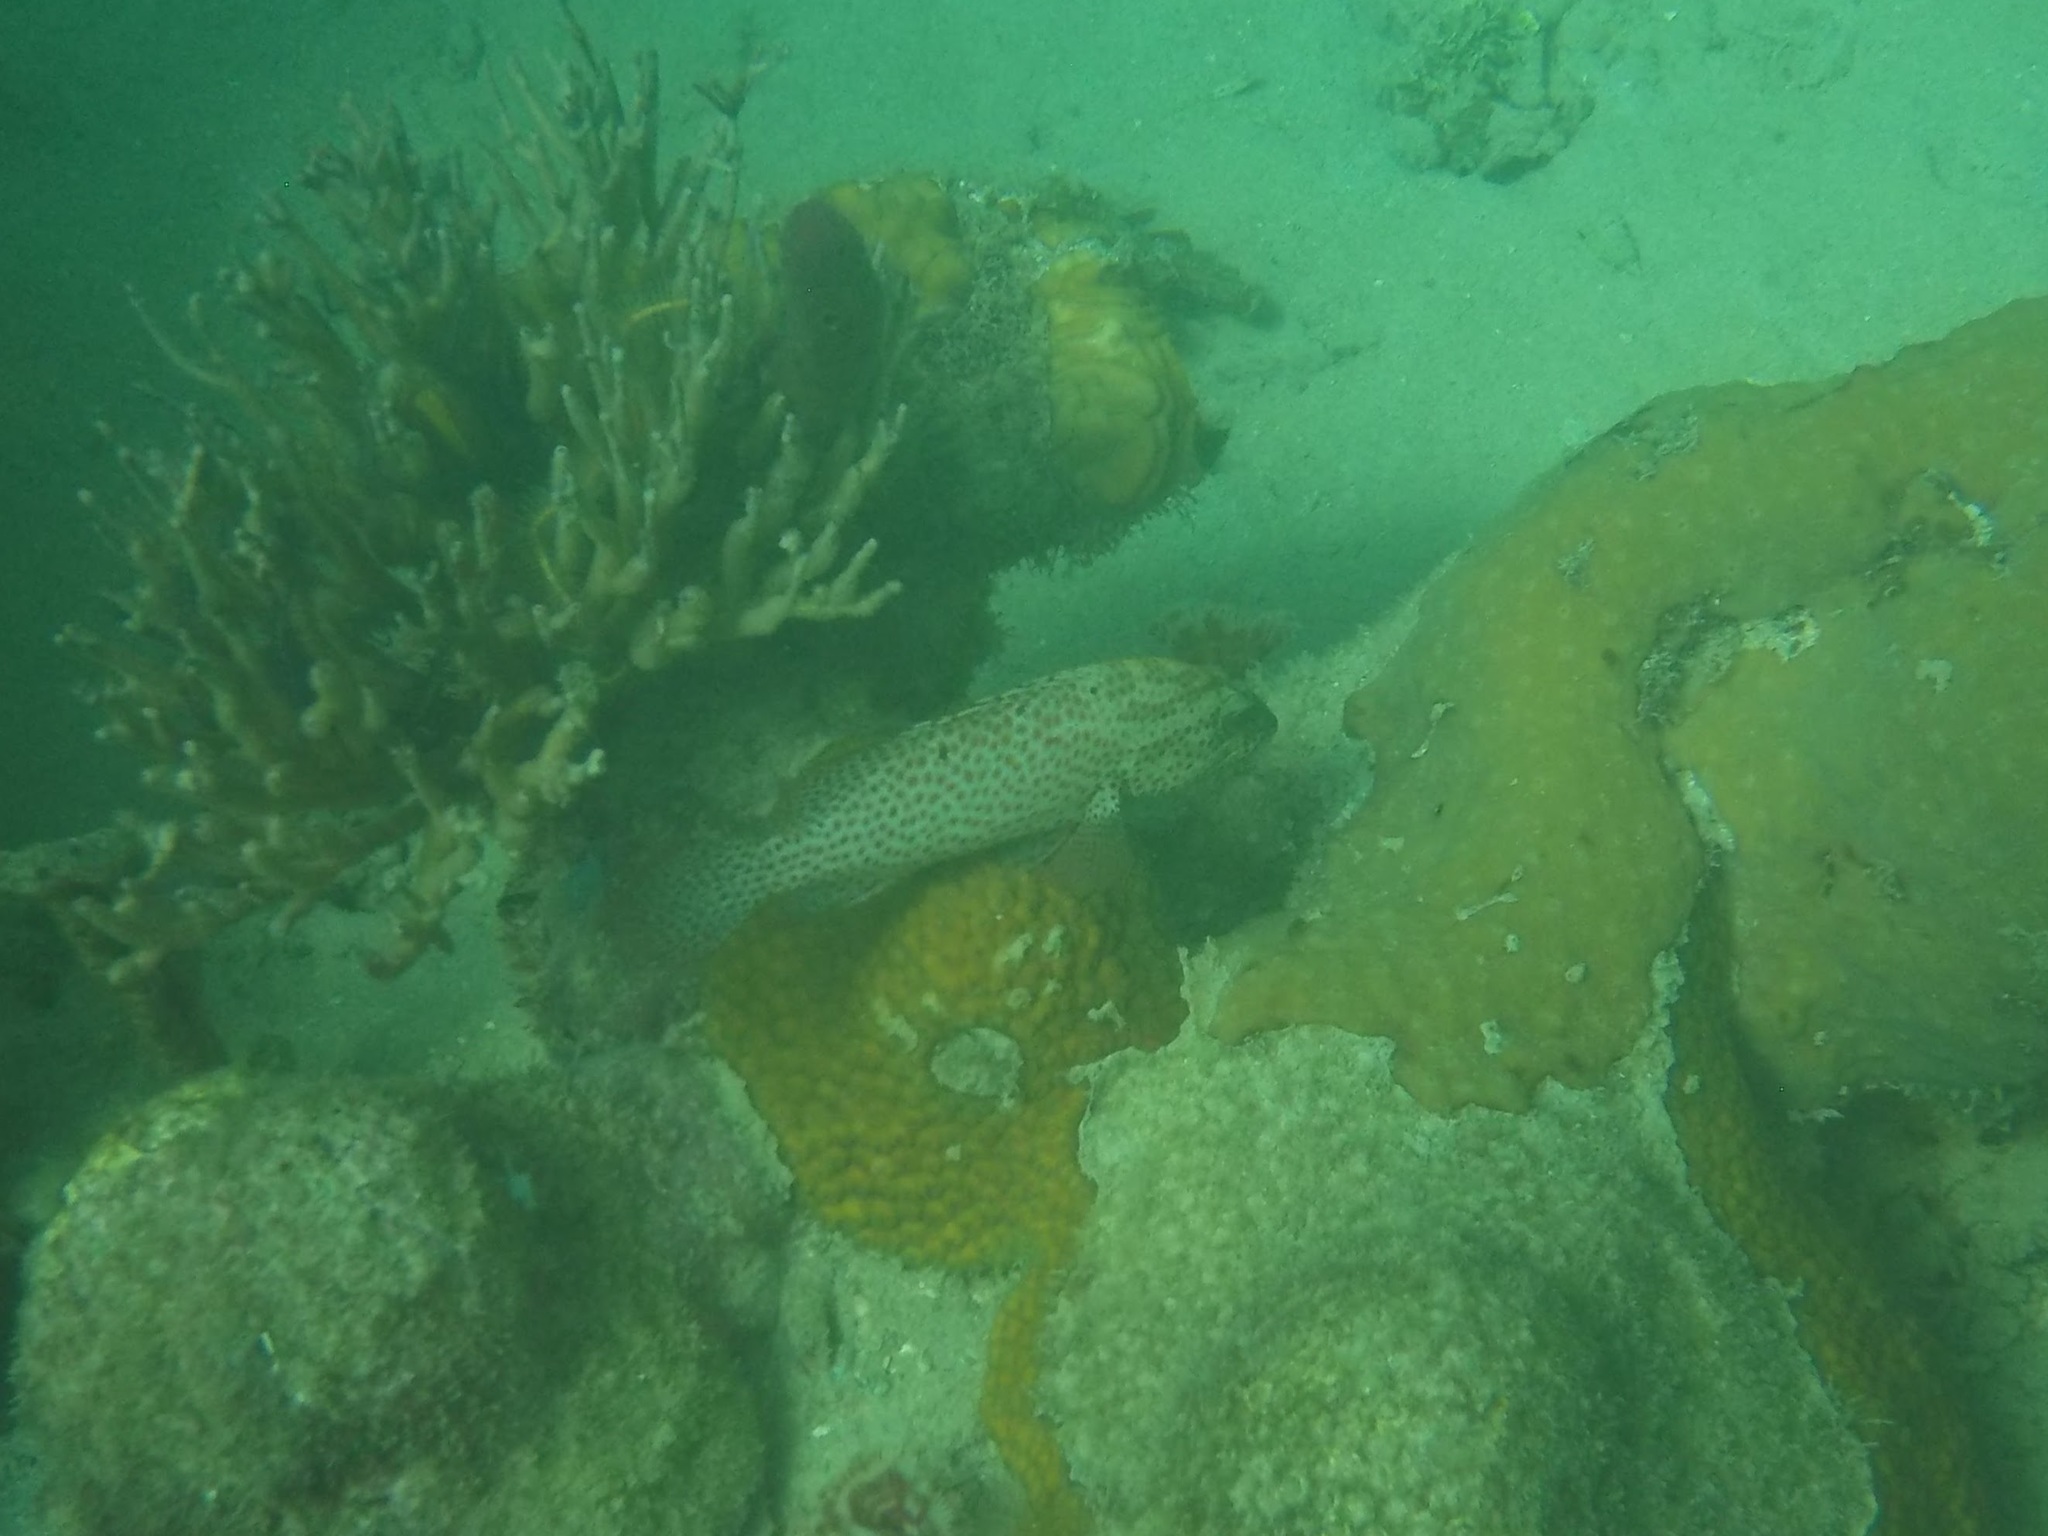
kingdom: Animalia
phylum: Chordata
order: Perciformes
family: Serranidae
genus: Cephalopholis
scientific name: Cephalopholis cruentata
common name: Graysby
